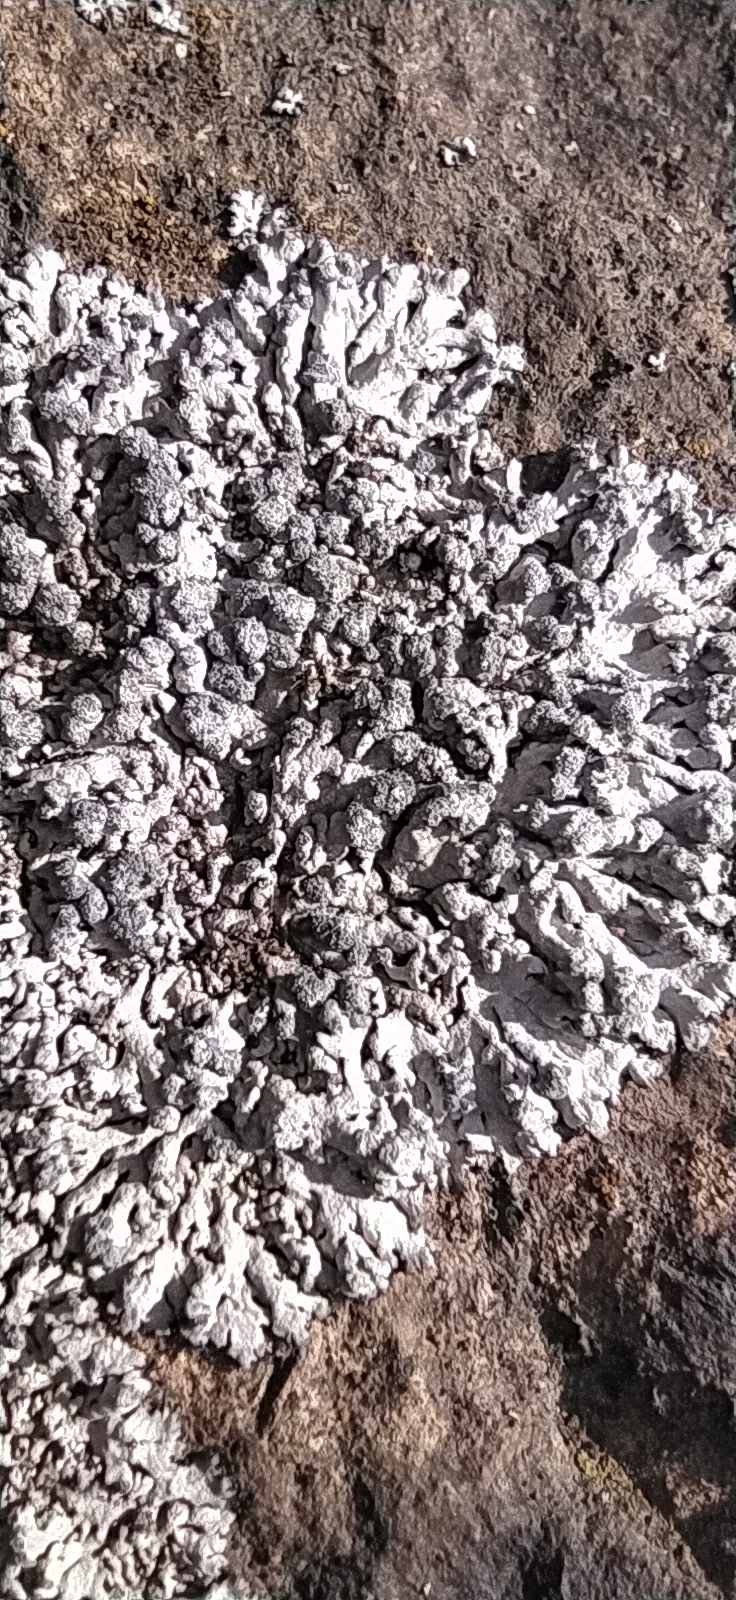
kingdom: Fungi
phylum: Ascomycota
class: Lecanoromycetes
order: Caliciales
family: Physciaceae
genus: Physcia
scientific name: Physcia caesia
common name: Blue-gray rosette lichen
